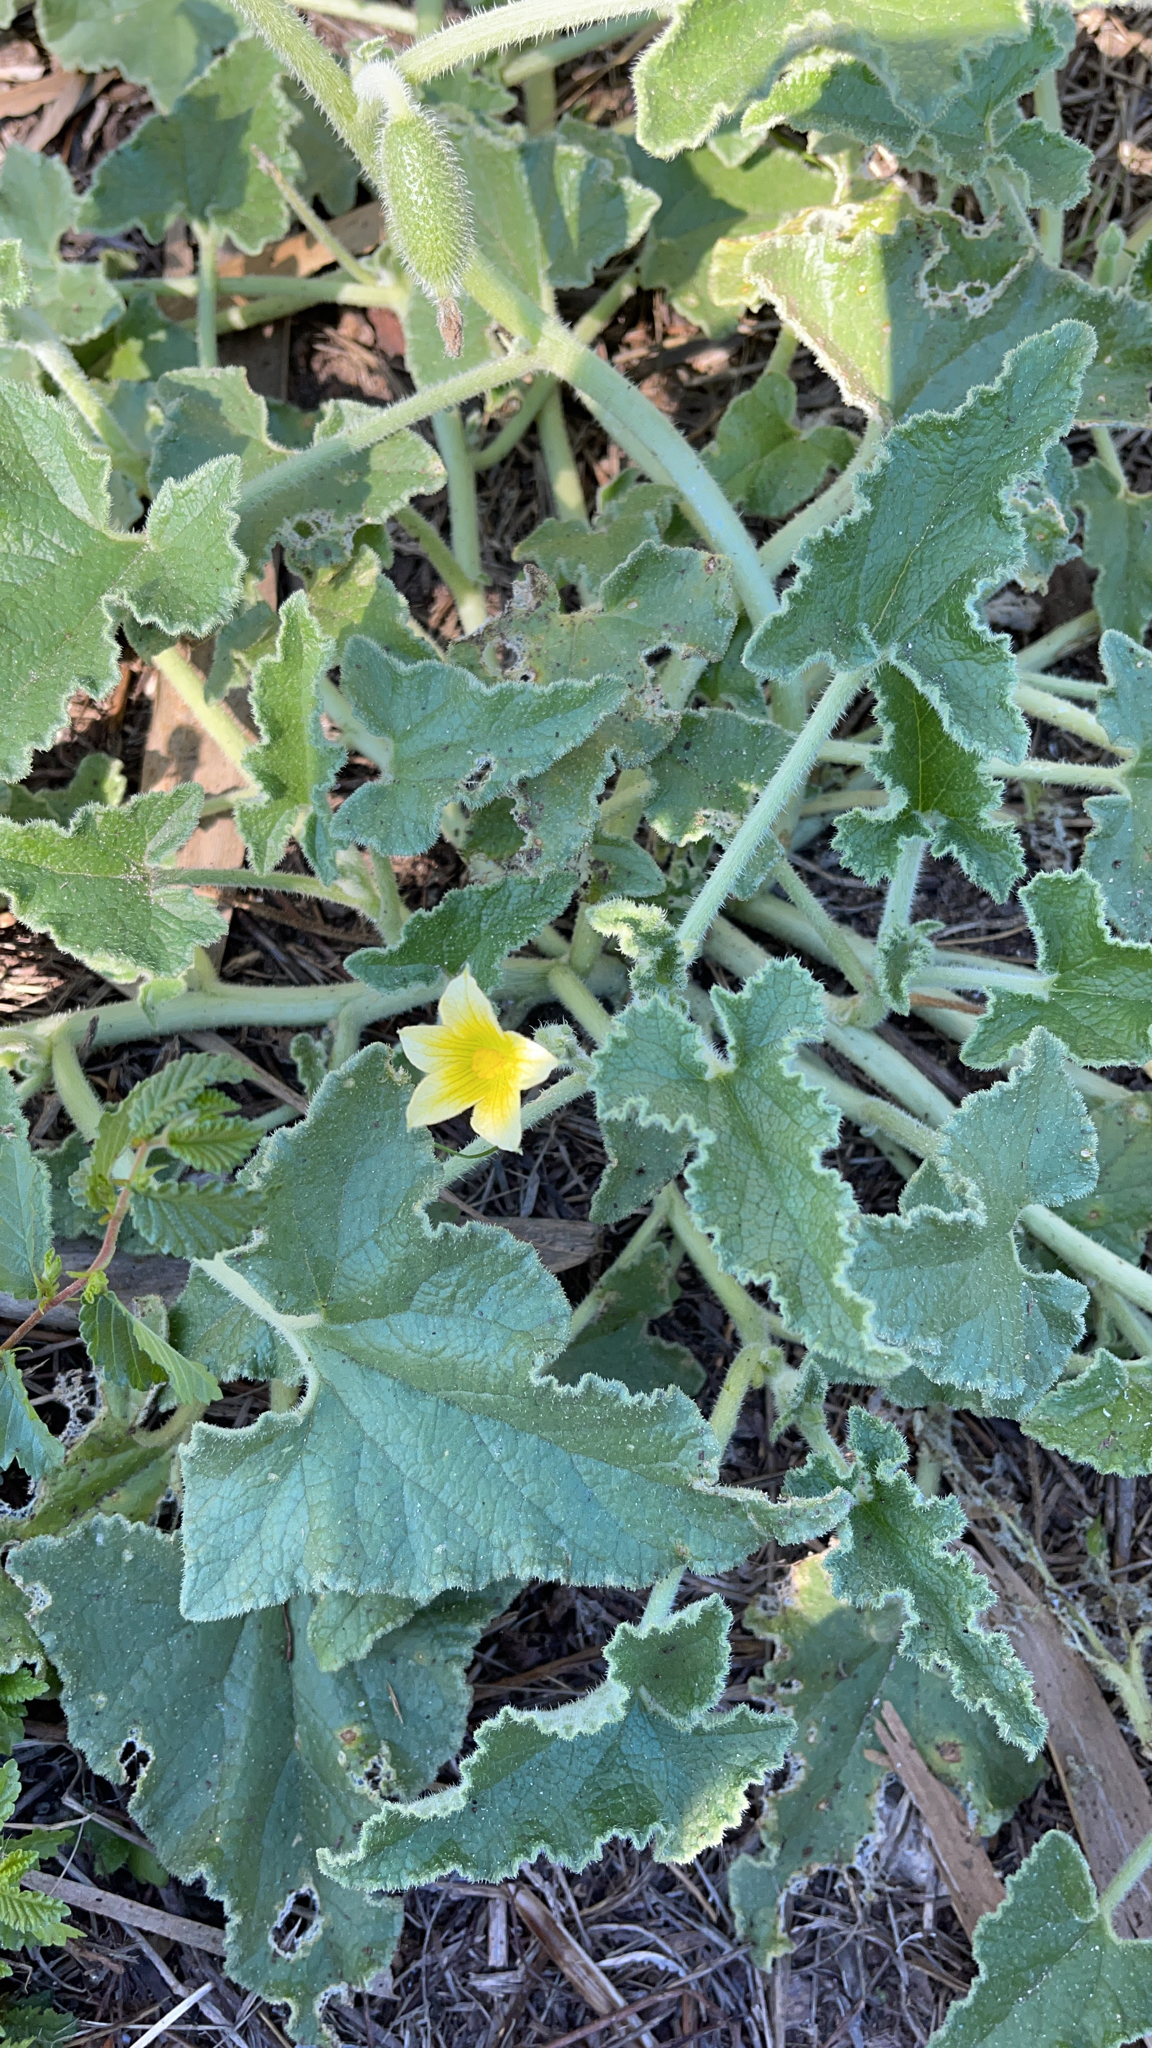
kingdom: Plantae
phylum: Tracheophyta
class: Magnoliopsida
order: Cucurbitales
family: Cucurbitaceae
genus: Ecballium
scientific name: Ecballium elaterium
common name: Squirting cucumber
